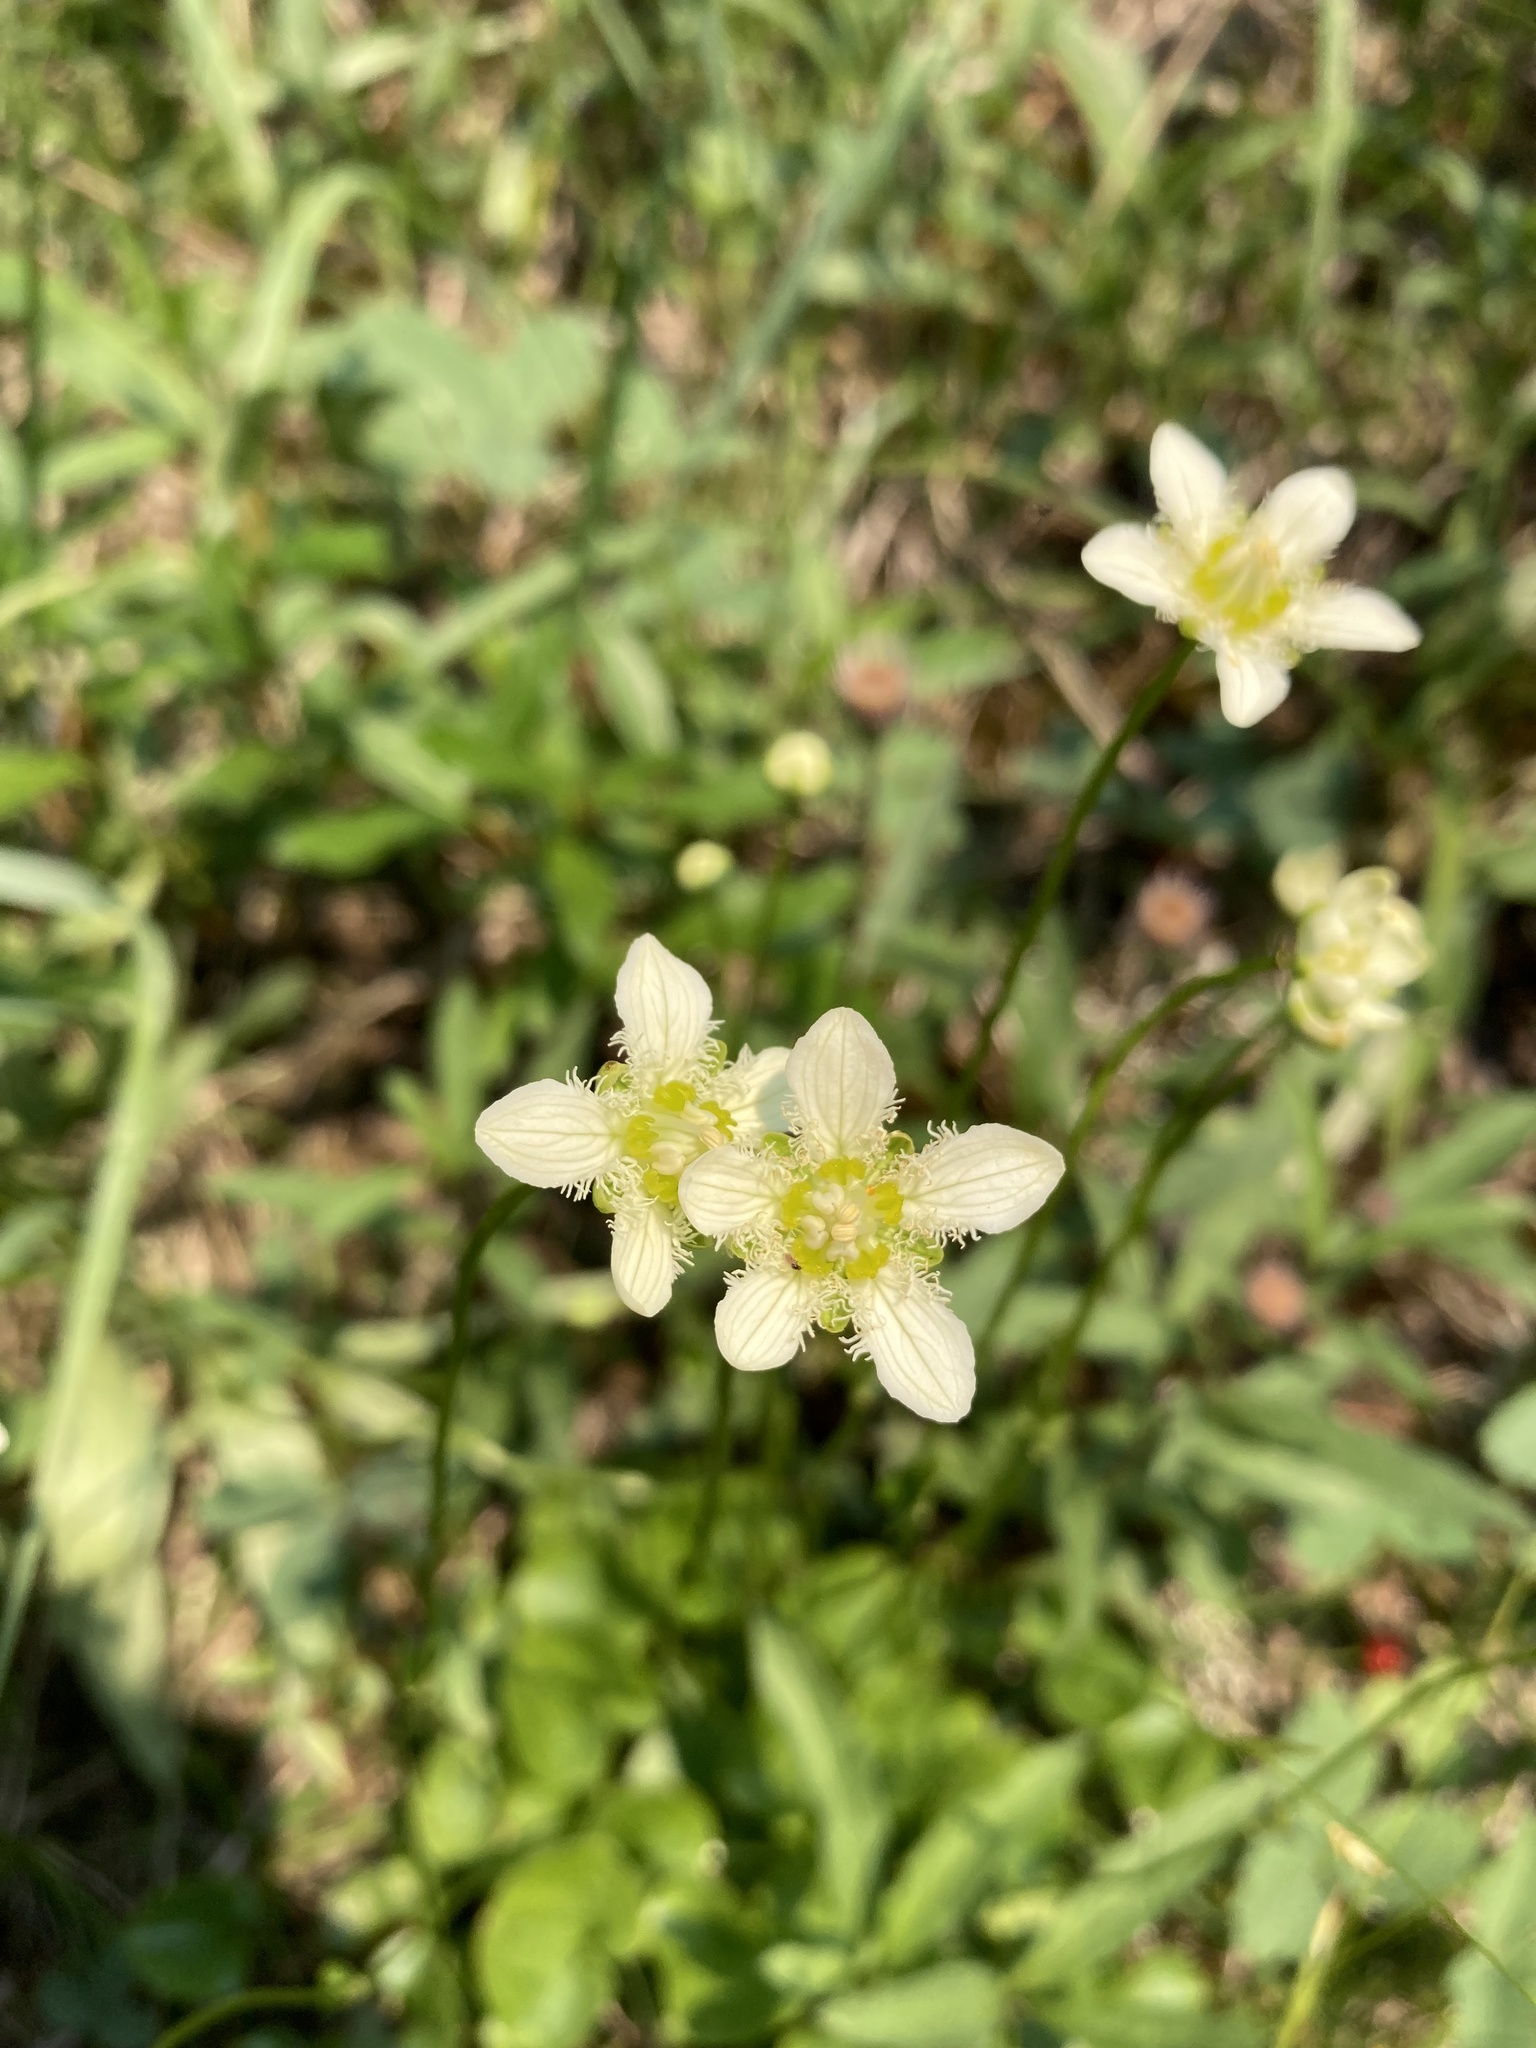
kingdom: Plantae
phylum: Tracheophyta
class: Magnoliopsida
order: Celastrales
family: Parnassiaceae
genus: Parnassia
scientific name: Parnassia fimbriata
